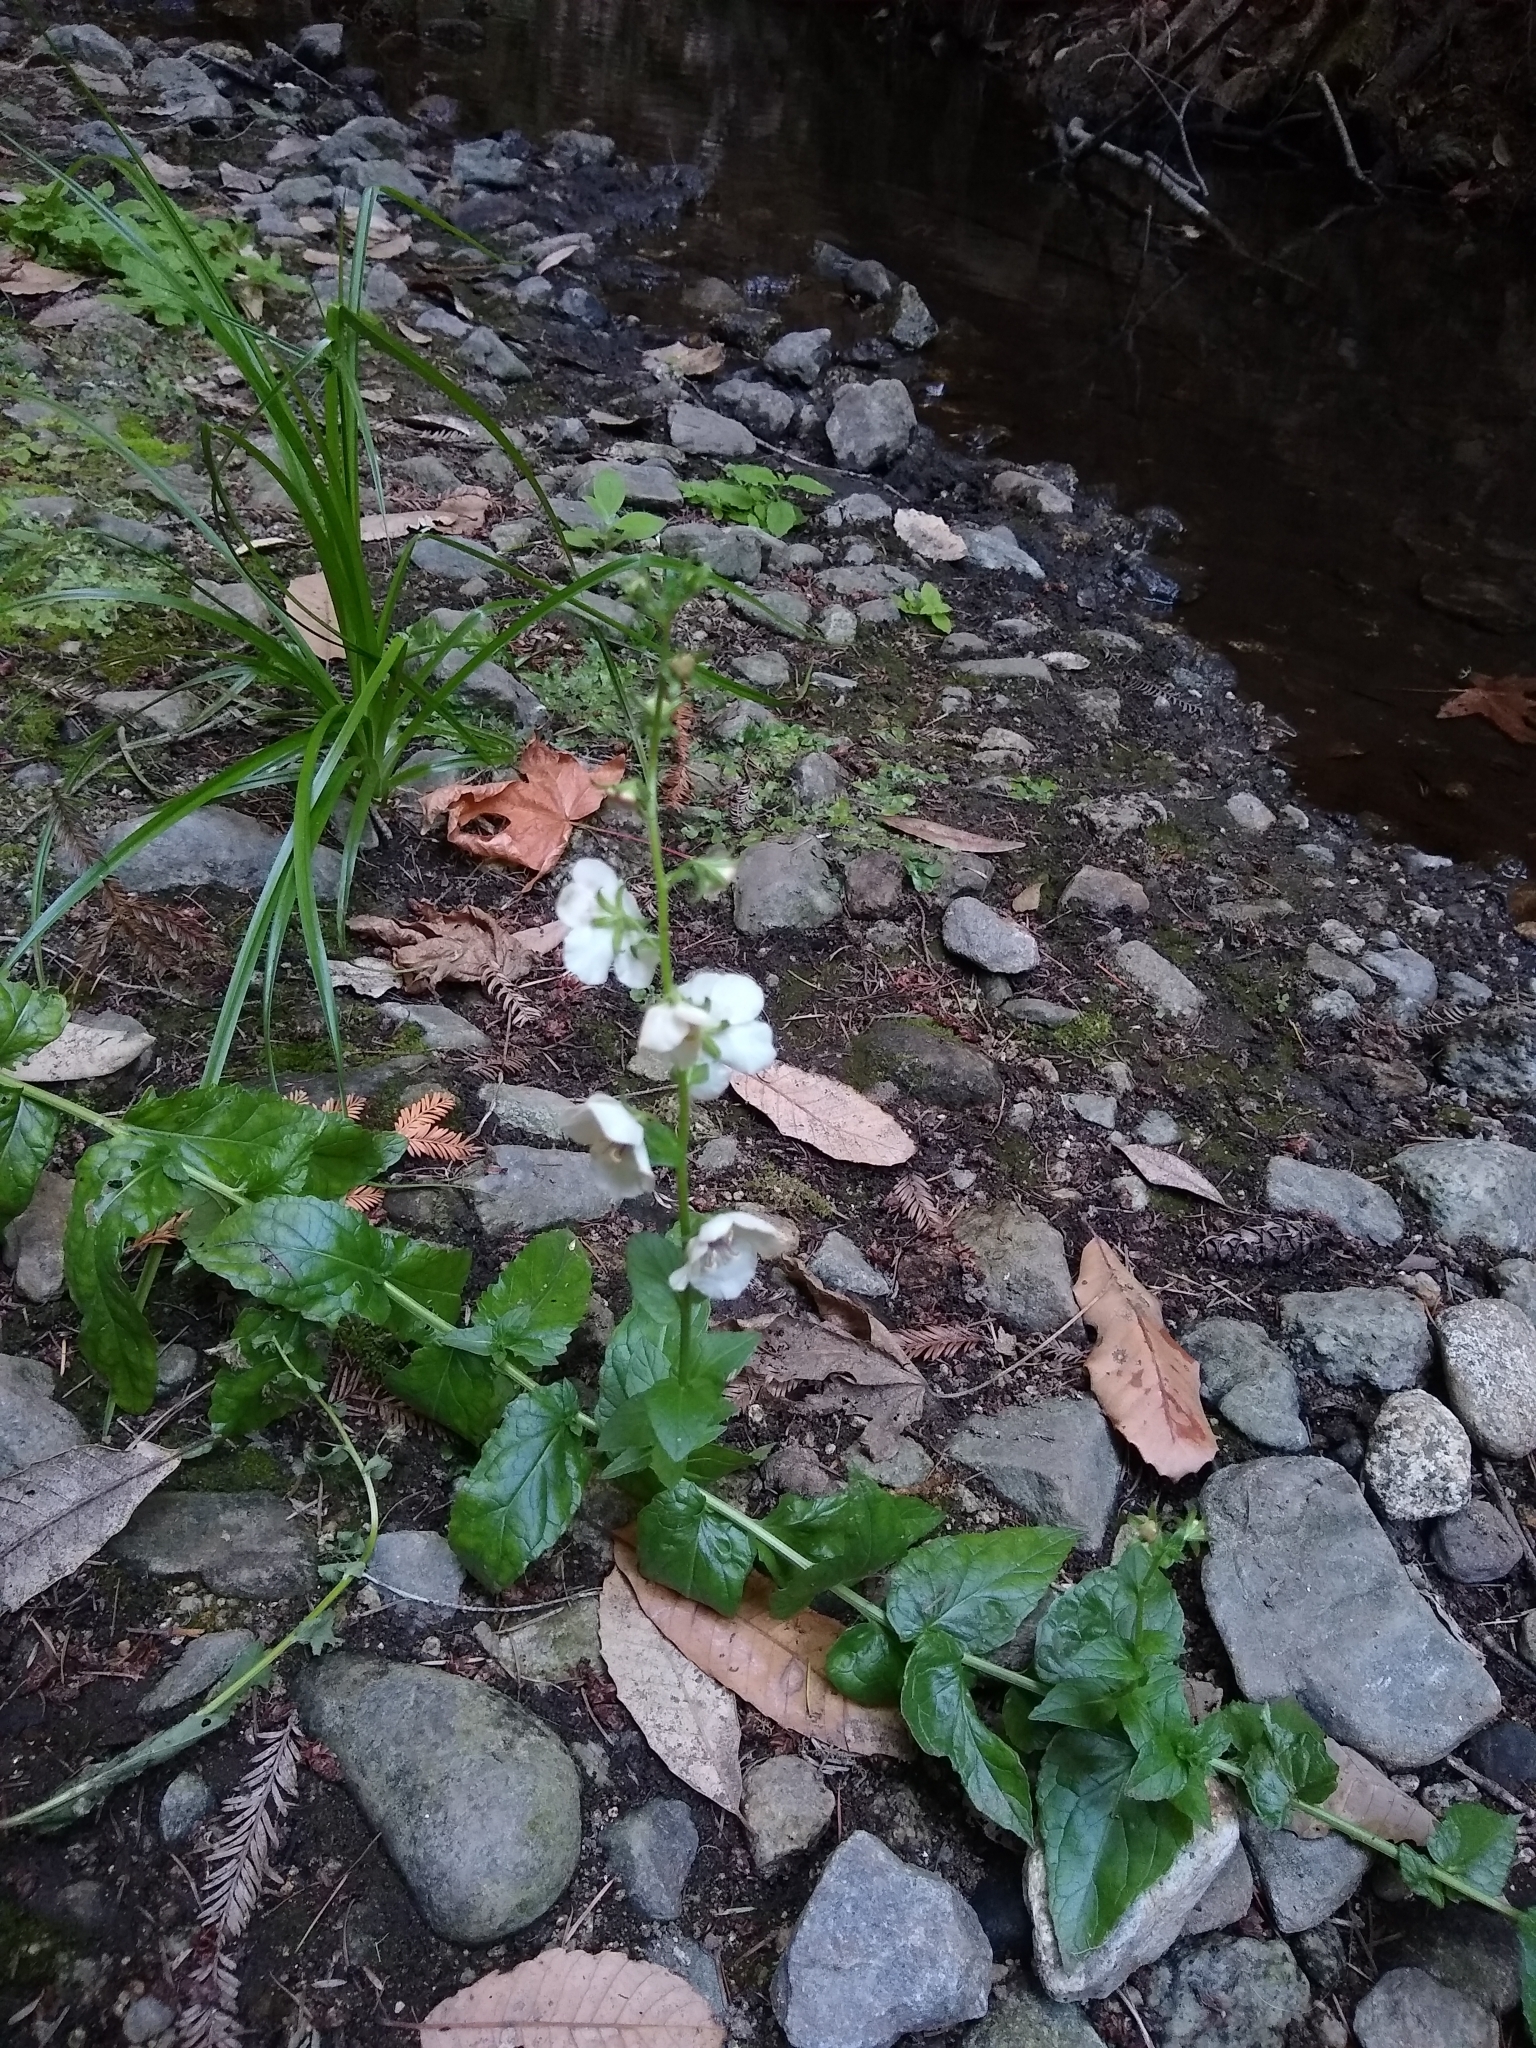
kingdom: Plantae
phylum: Tracheophyta
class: Magnoliopsida
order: Lamiales
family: Scrophulariaceae
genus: Verbascum
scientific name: Verbascum blattaria
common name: Moth mullein
